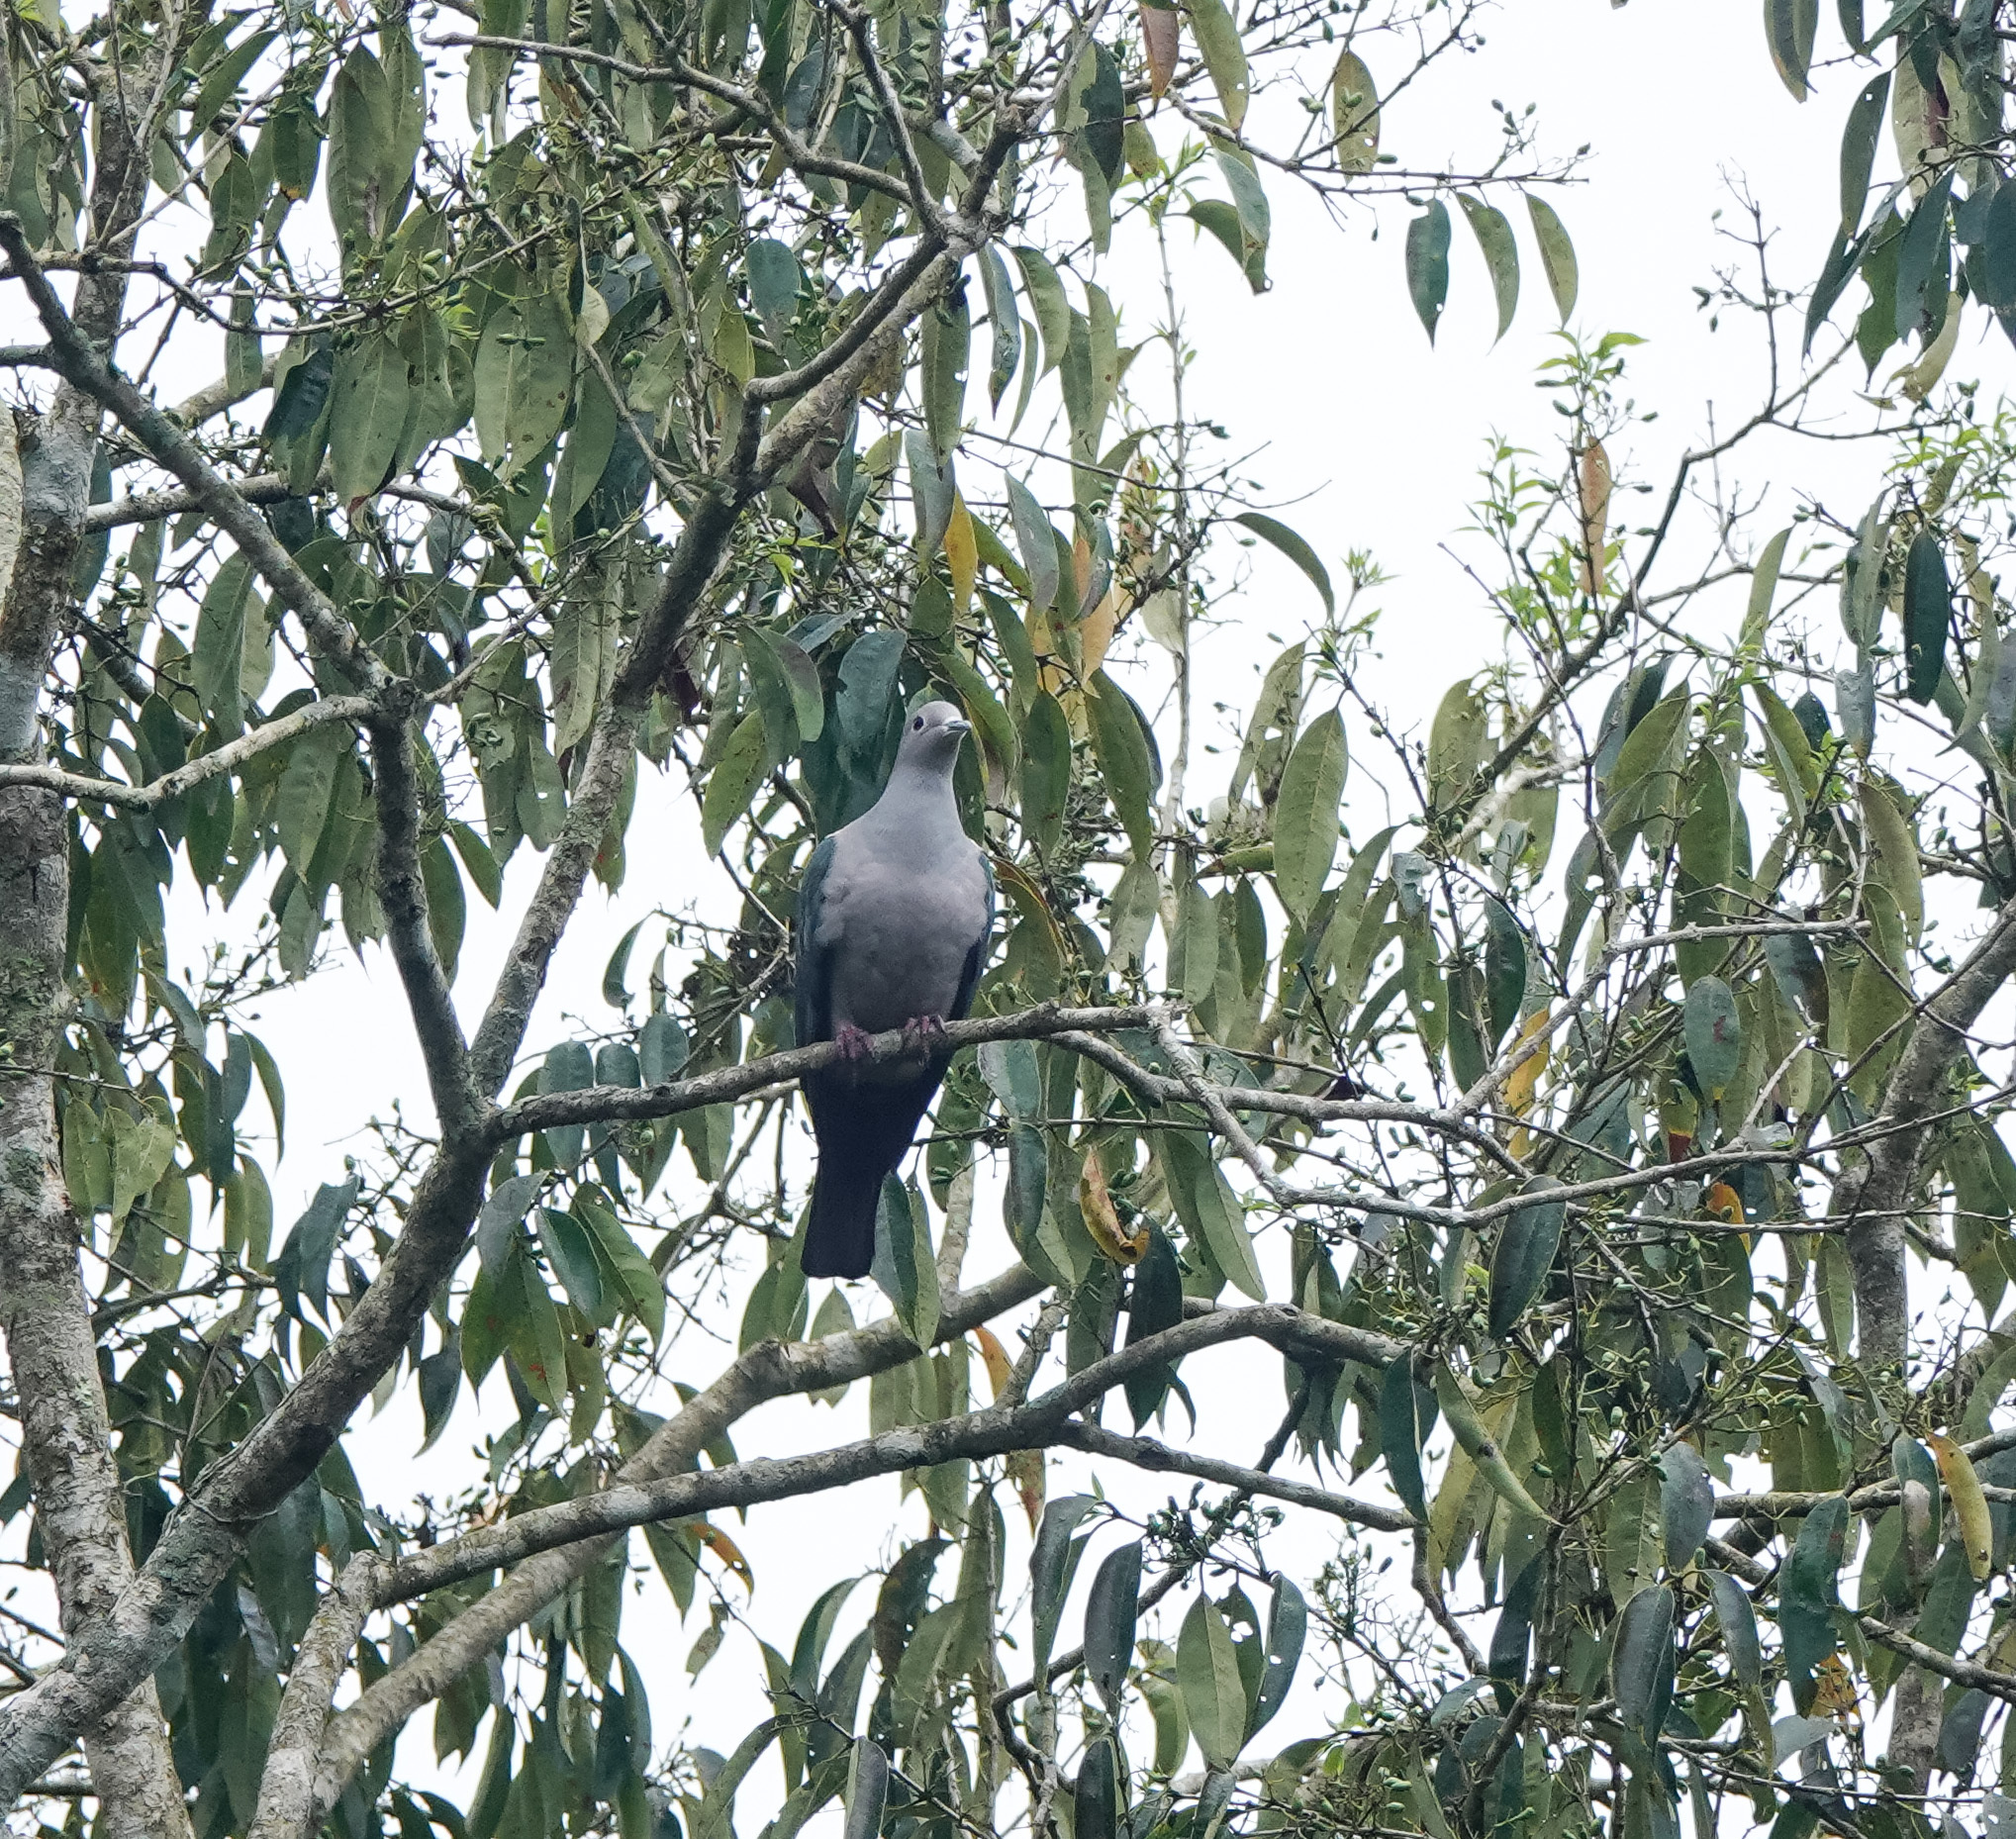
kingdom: Animalia
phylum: Chordata
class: Aves
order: Columbiformes
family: Columbidae
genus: Ducula
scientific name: Ducula aenea
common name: Green imperial pigeon
